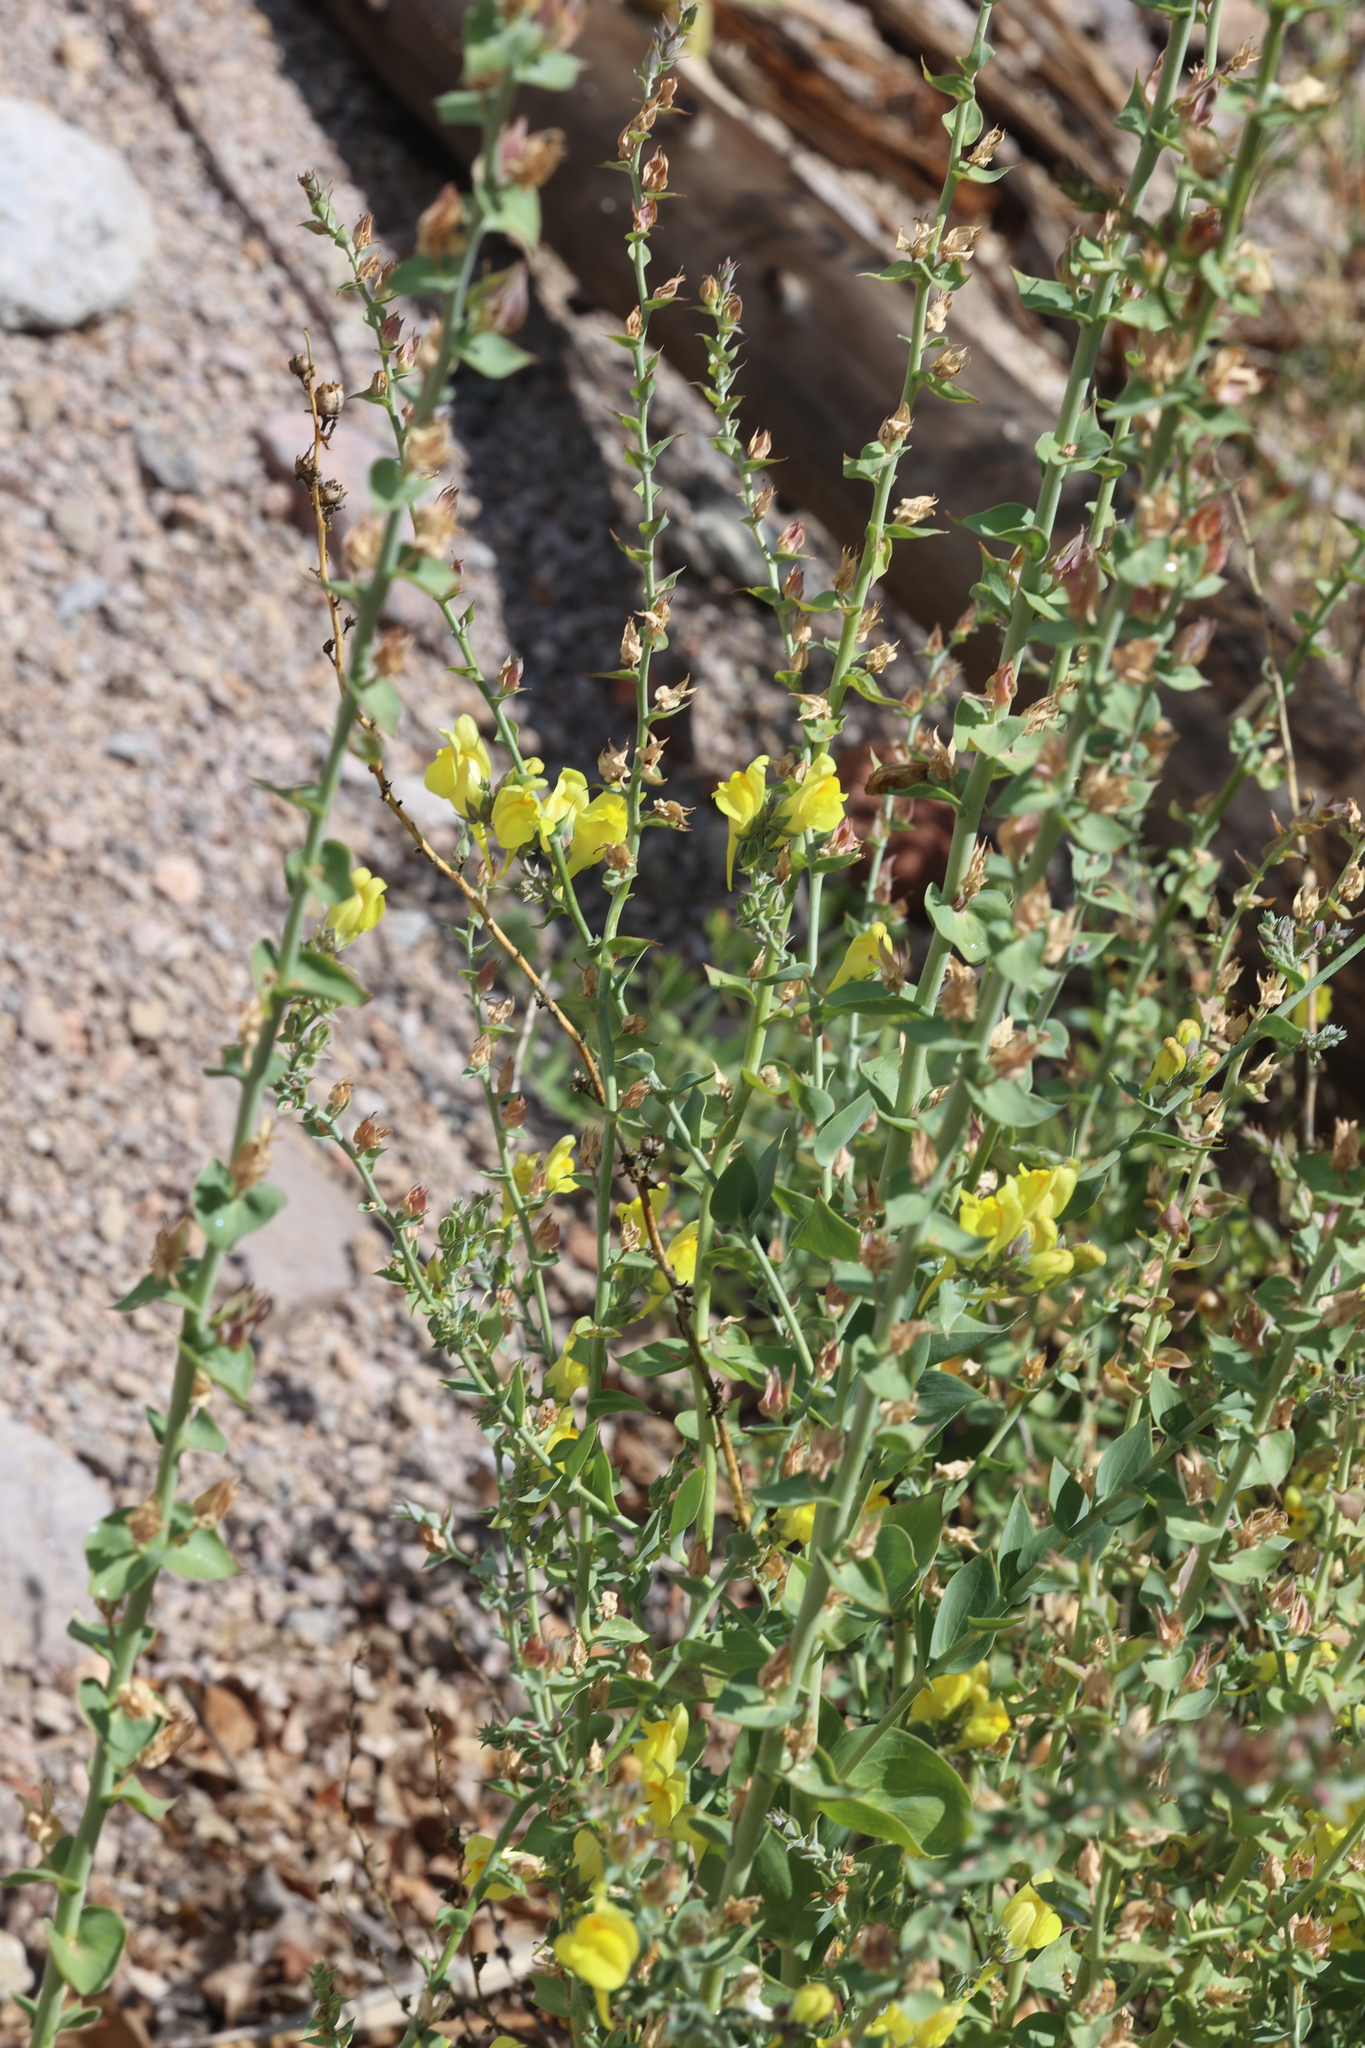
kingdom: Plantae
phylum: Tracheophyta
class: Magnoliopsida
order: Lamiales
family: Plantaginaceae
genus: Linaria
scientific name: Linaria dalmatica
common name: Dalmatian toadflax
